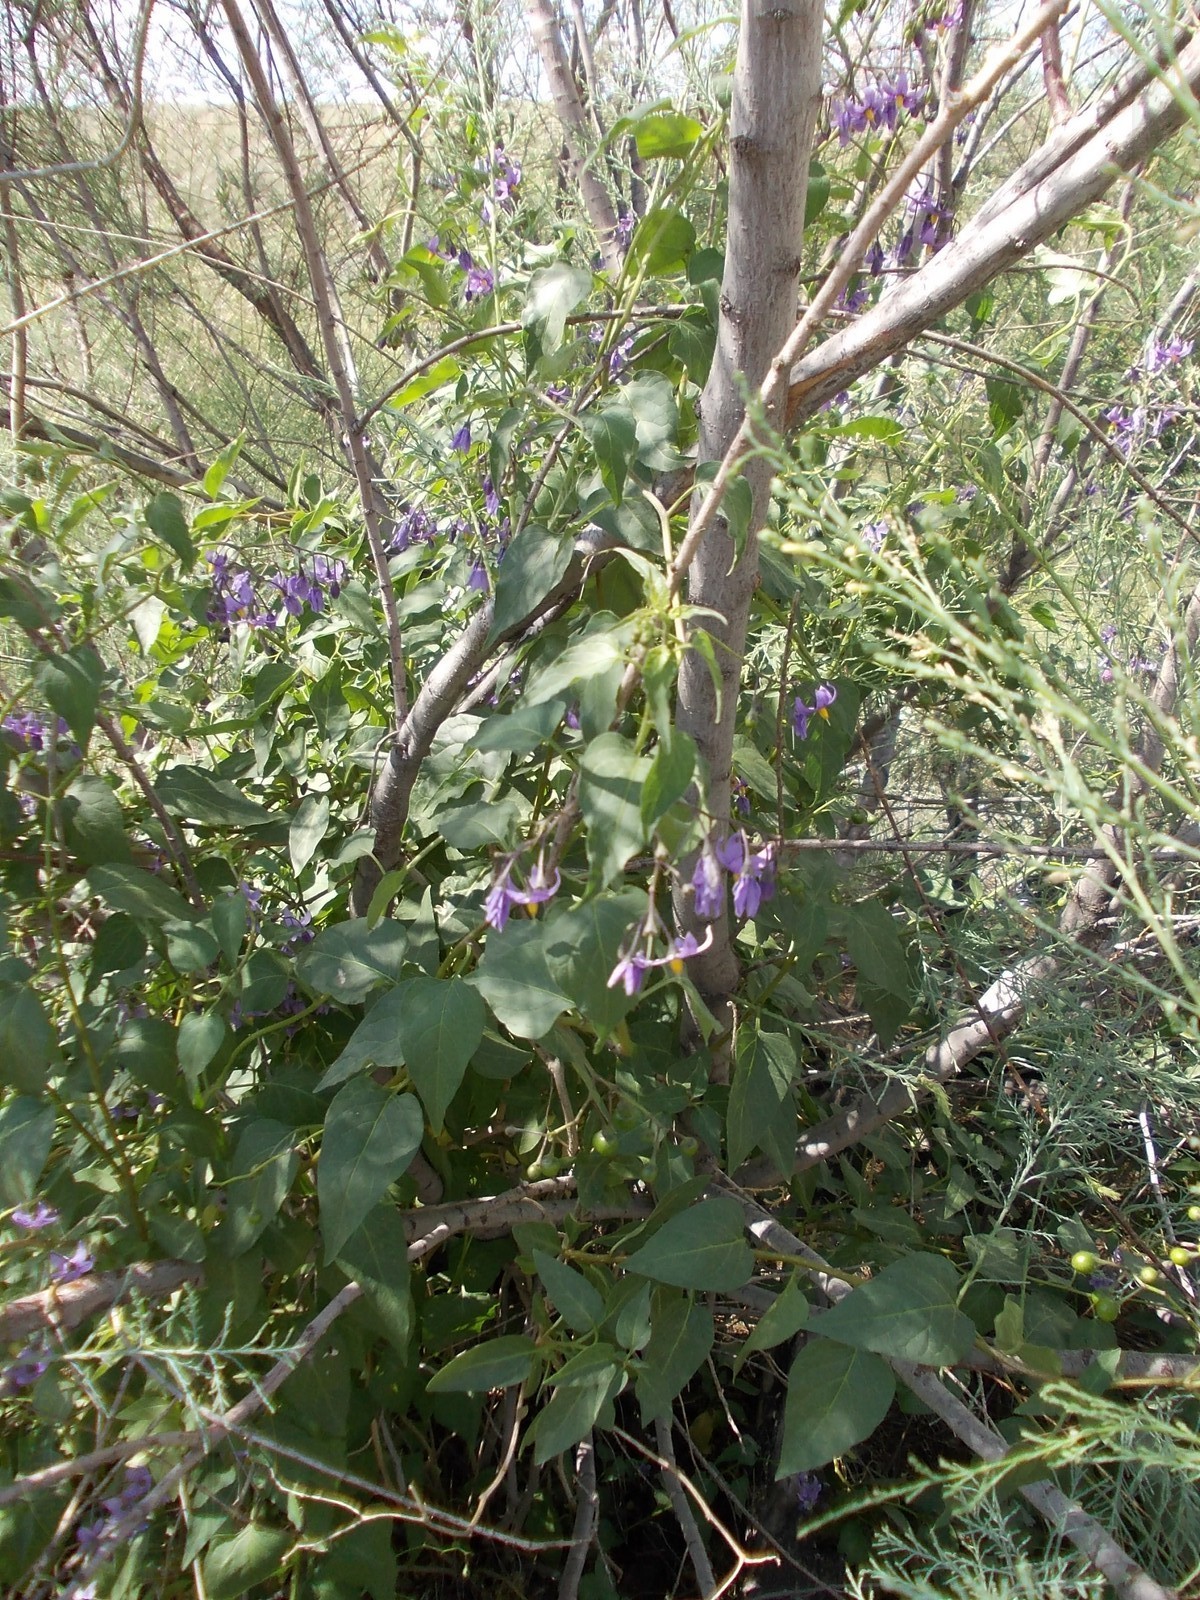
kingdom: Plantae
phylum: Tracheophyta
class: Magnoliopsida
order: Solanales
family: Solanaceae
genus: Solanum
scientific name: Solanum dulcamara
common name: Climbing nightshade
